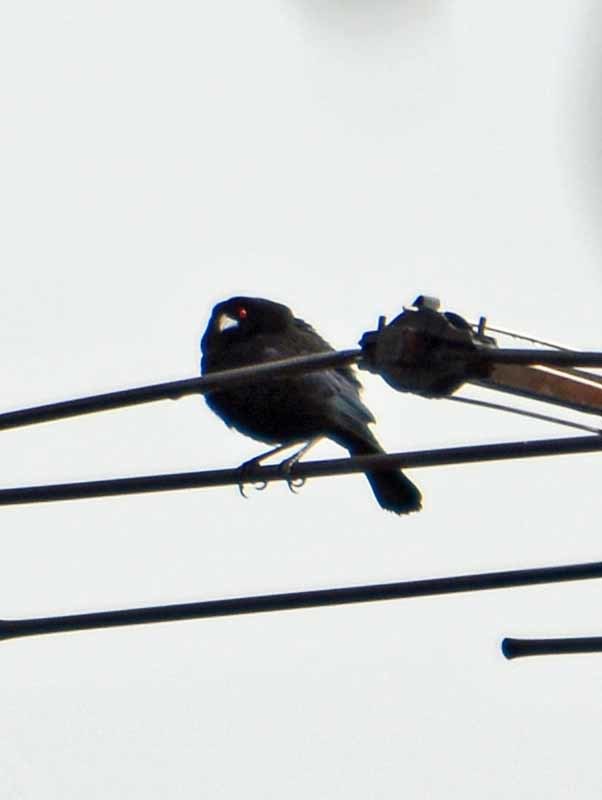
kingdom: Animalia
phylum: Chordata
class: Aves
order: Passeriformes
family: Icteridae
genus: Molothrus
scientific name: Molothrus aeneus
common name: Bronzed cowbird
